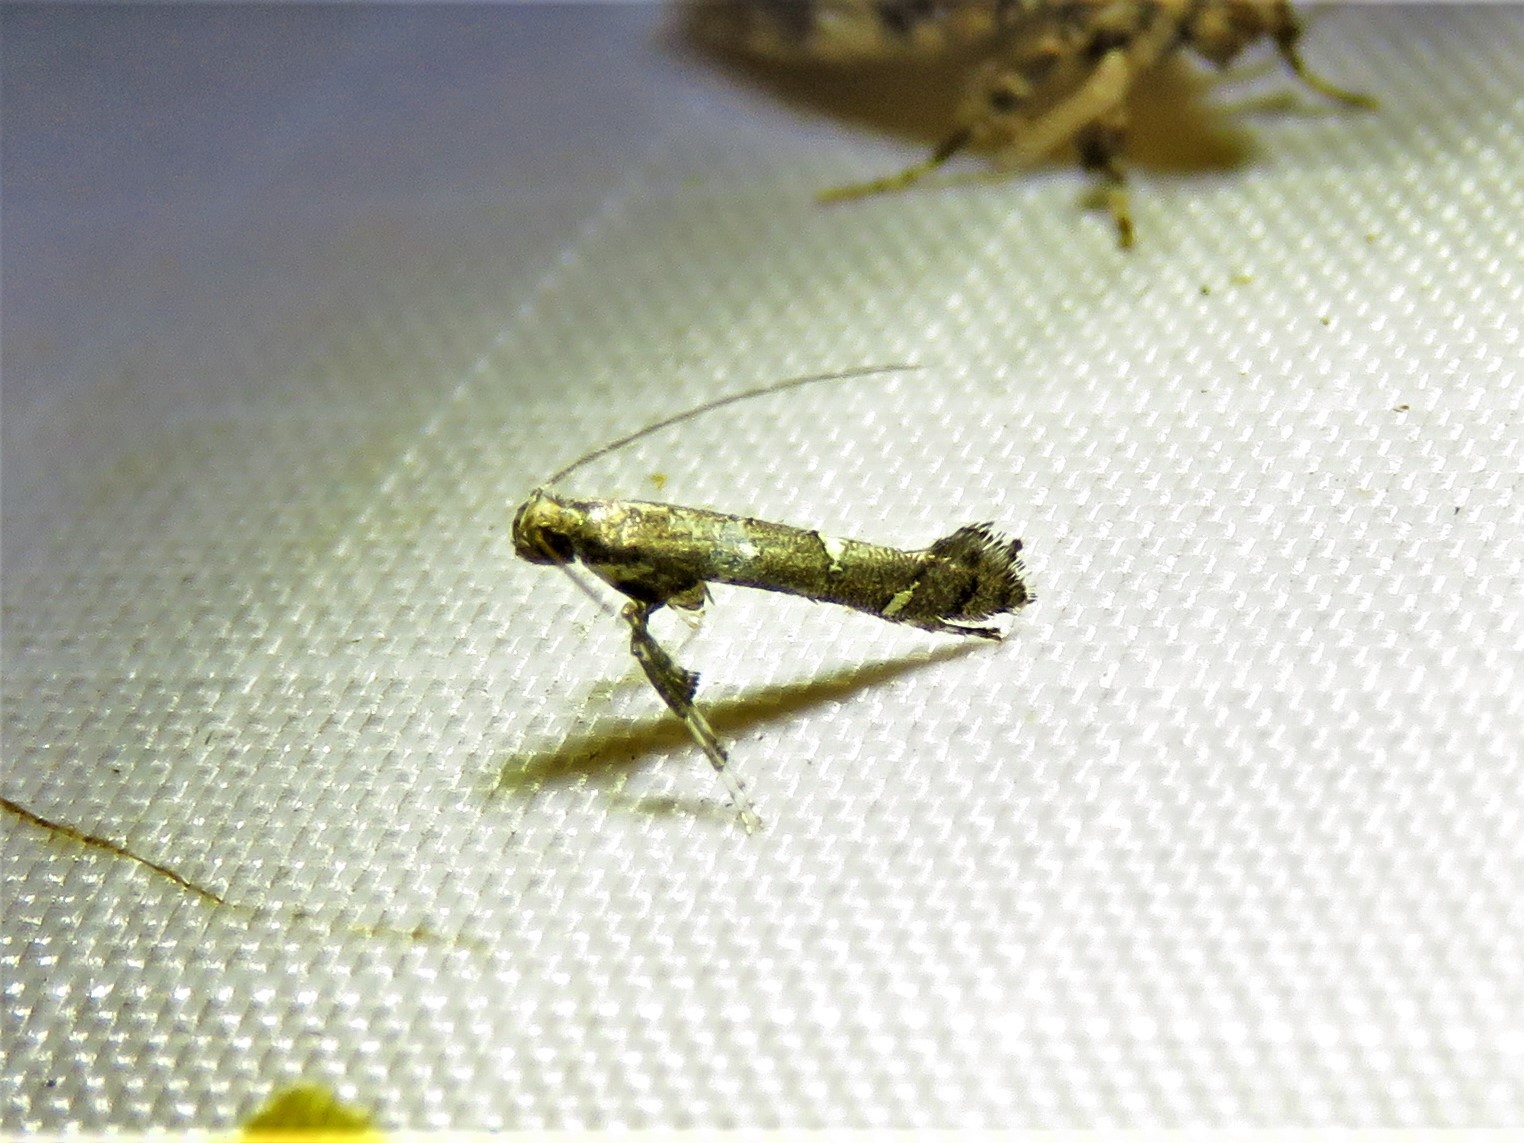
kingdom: Animalia
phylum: Arthropoda
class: Insecta
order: Lepidoptera
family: Gracillariidae
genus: Caloptilia
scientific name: Caloptilia triadicae
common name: Tallow leaf roller
